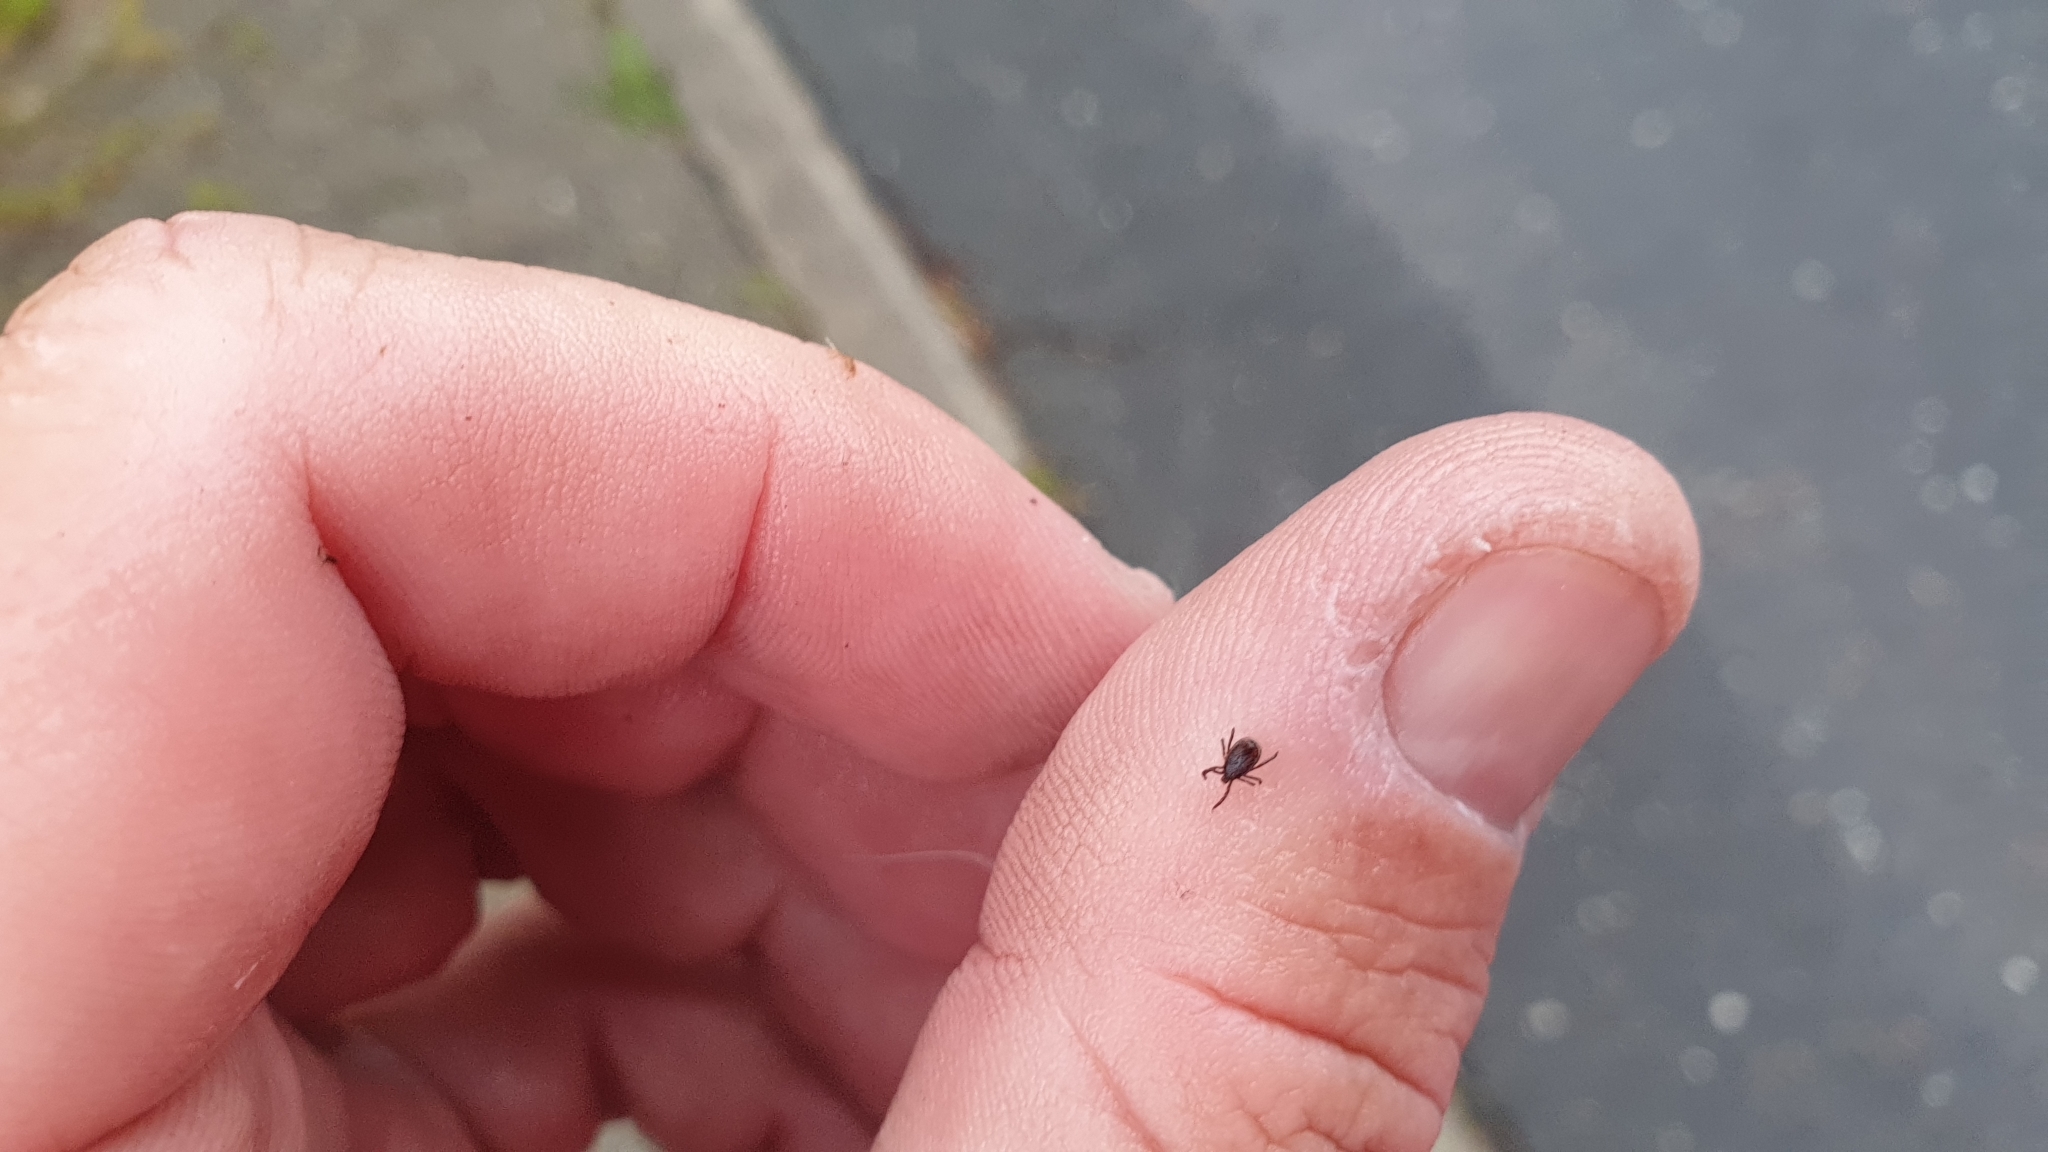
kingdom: Animalia
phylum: Arthropoda
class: Arachnida
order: Ixodida
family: Ixodidae
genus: Ixodes
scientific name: Ixodes ricinus
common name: Castor bean tick
